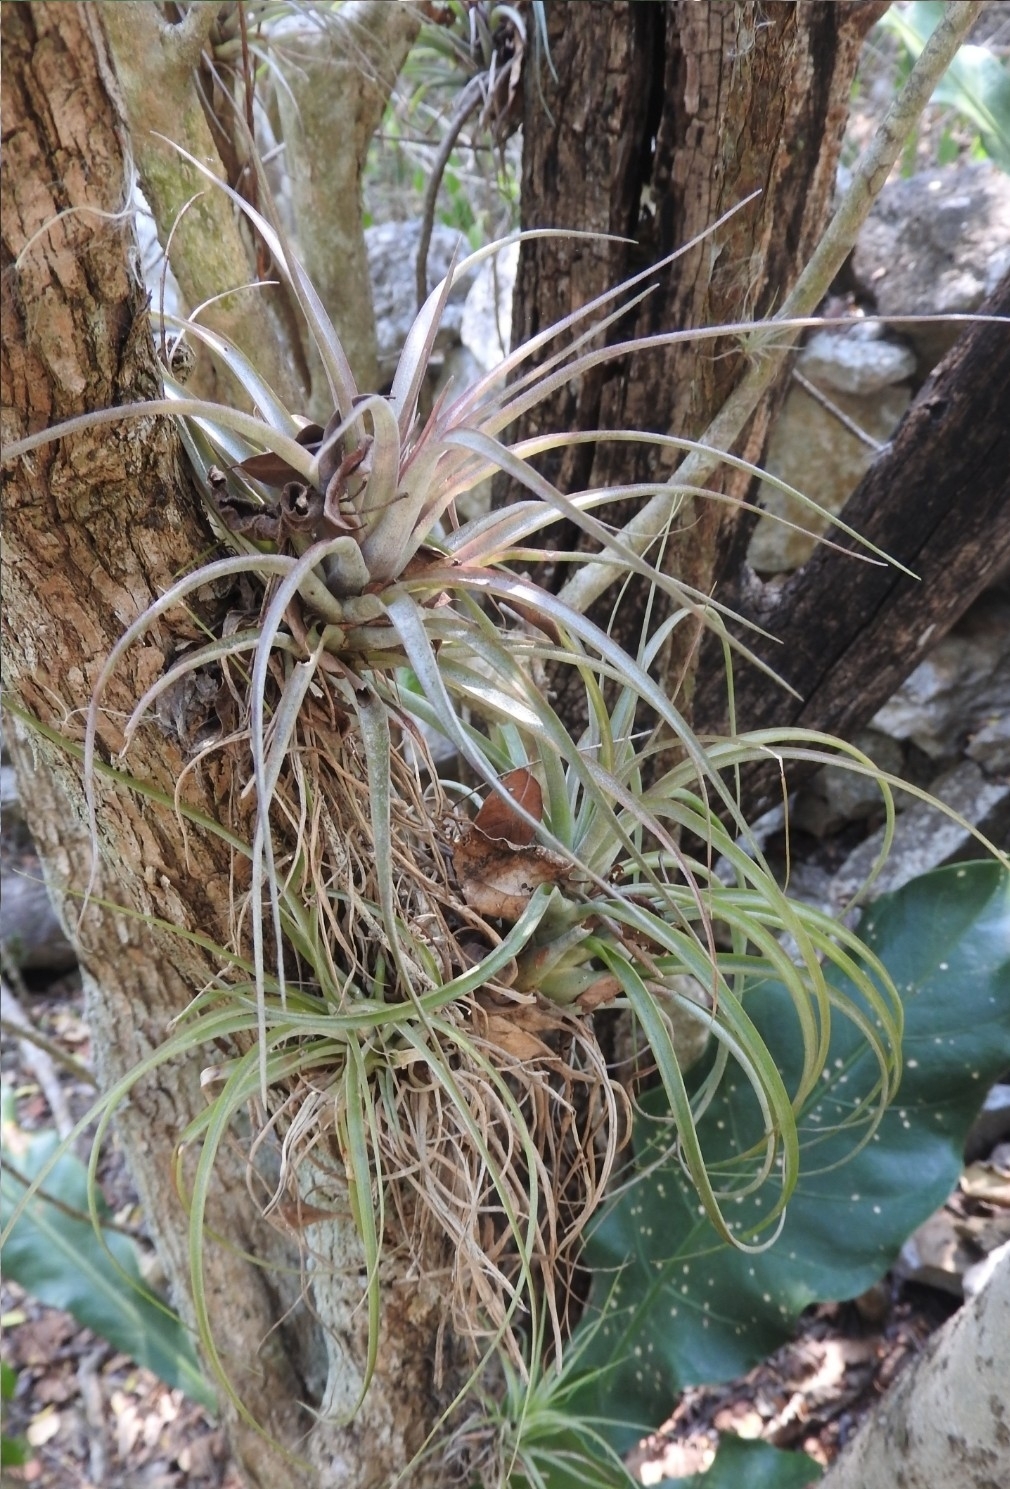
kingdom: Plantae
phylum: Tracheophyta
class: Liliopsida
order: Poales
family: Bromeliaceae
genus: Tillandsia
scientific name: Tillandsia fasciculata
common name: Giant airplant
